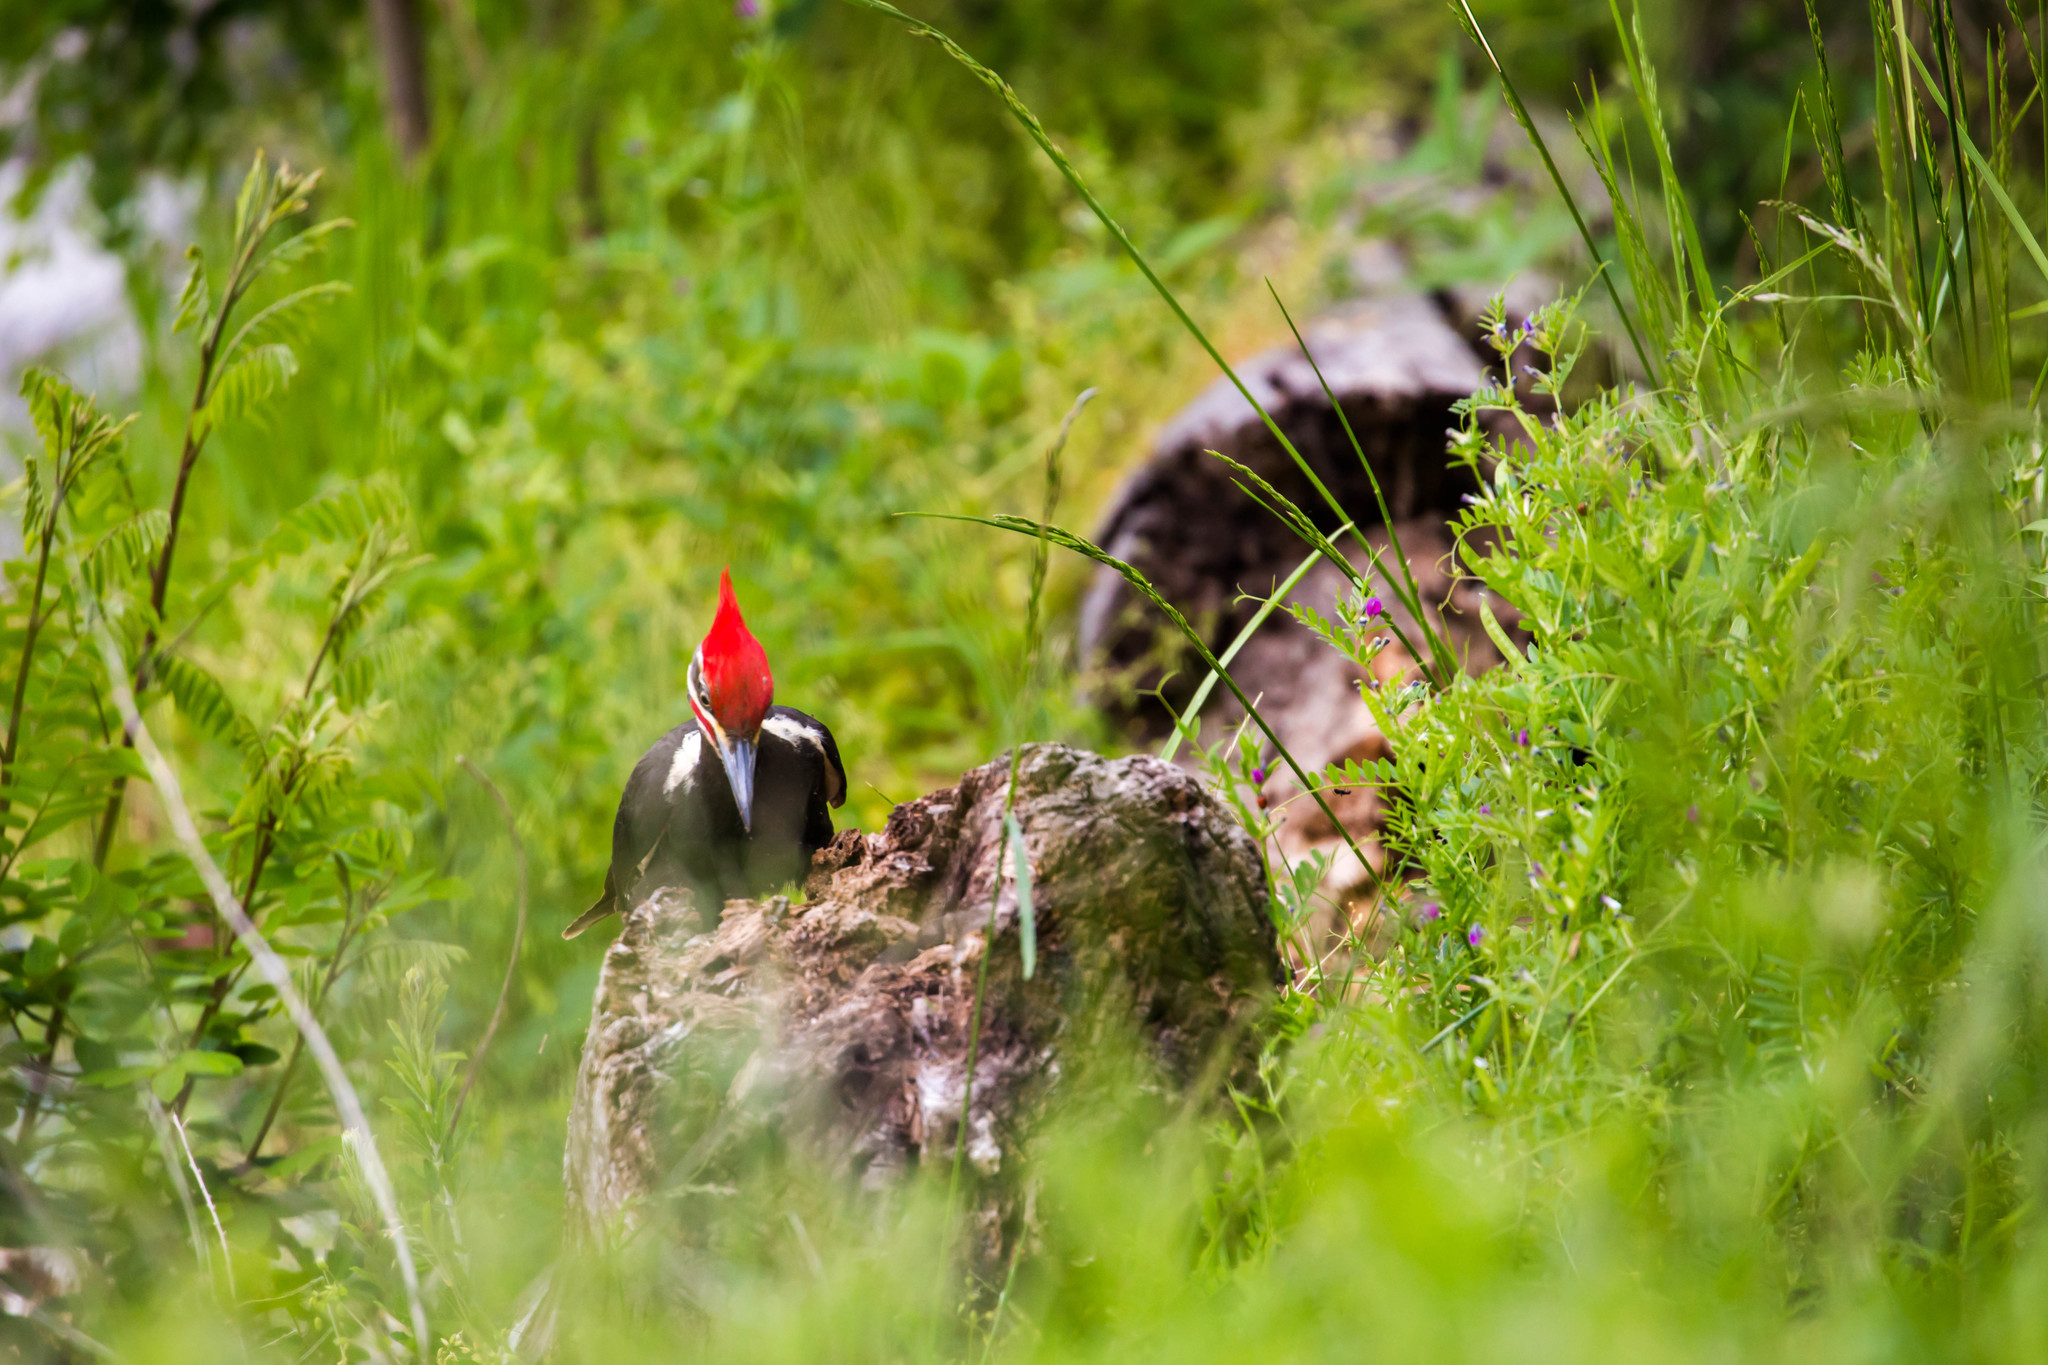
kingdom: Animalia
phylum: Chordata
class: Aves
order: Piciformes
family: Picidae
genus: Dryocopus
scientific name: Dryocopus pileatus
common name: Pileated woodpecker
